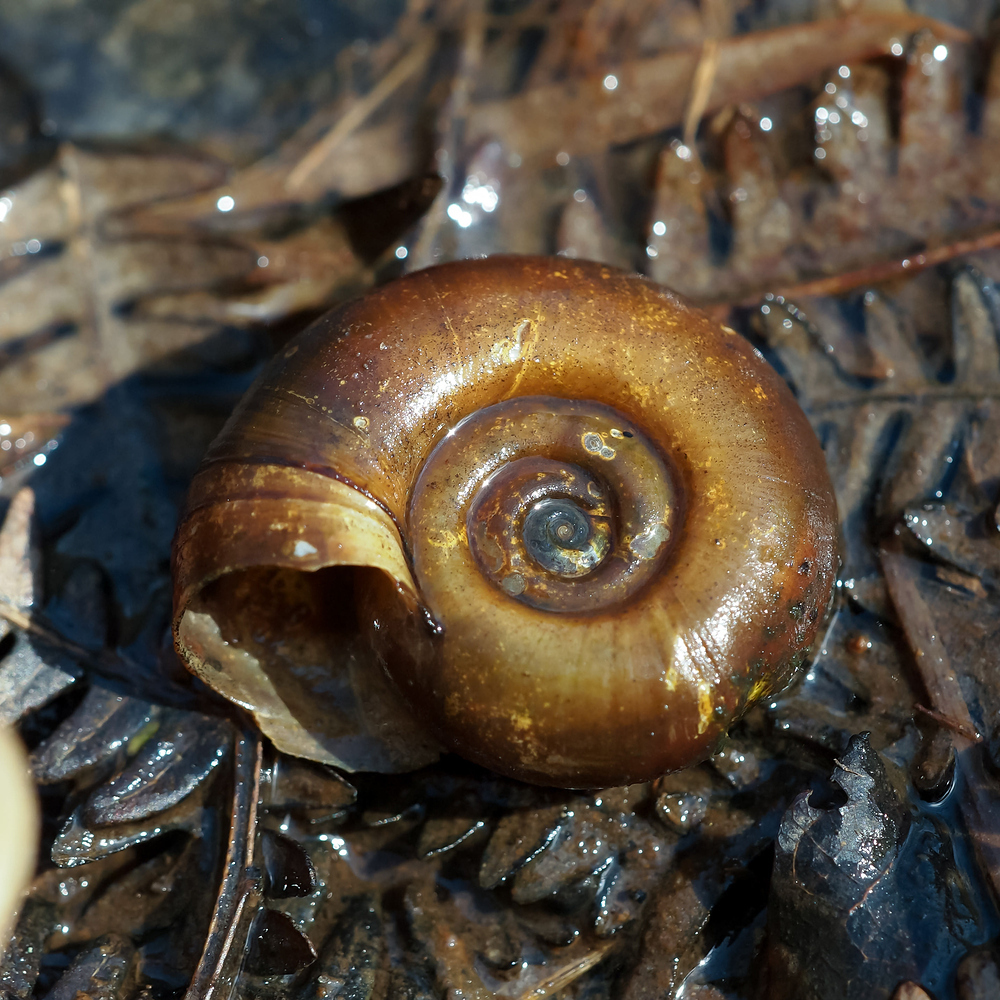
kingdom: Animalia
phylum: Mollusca
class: Gastropoda
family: Planorbidae
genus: Planorbarius
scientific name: Planorbarius corneus
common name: Great ramshorn
